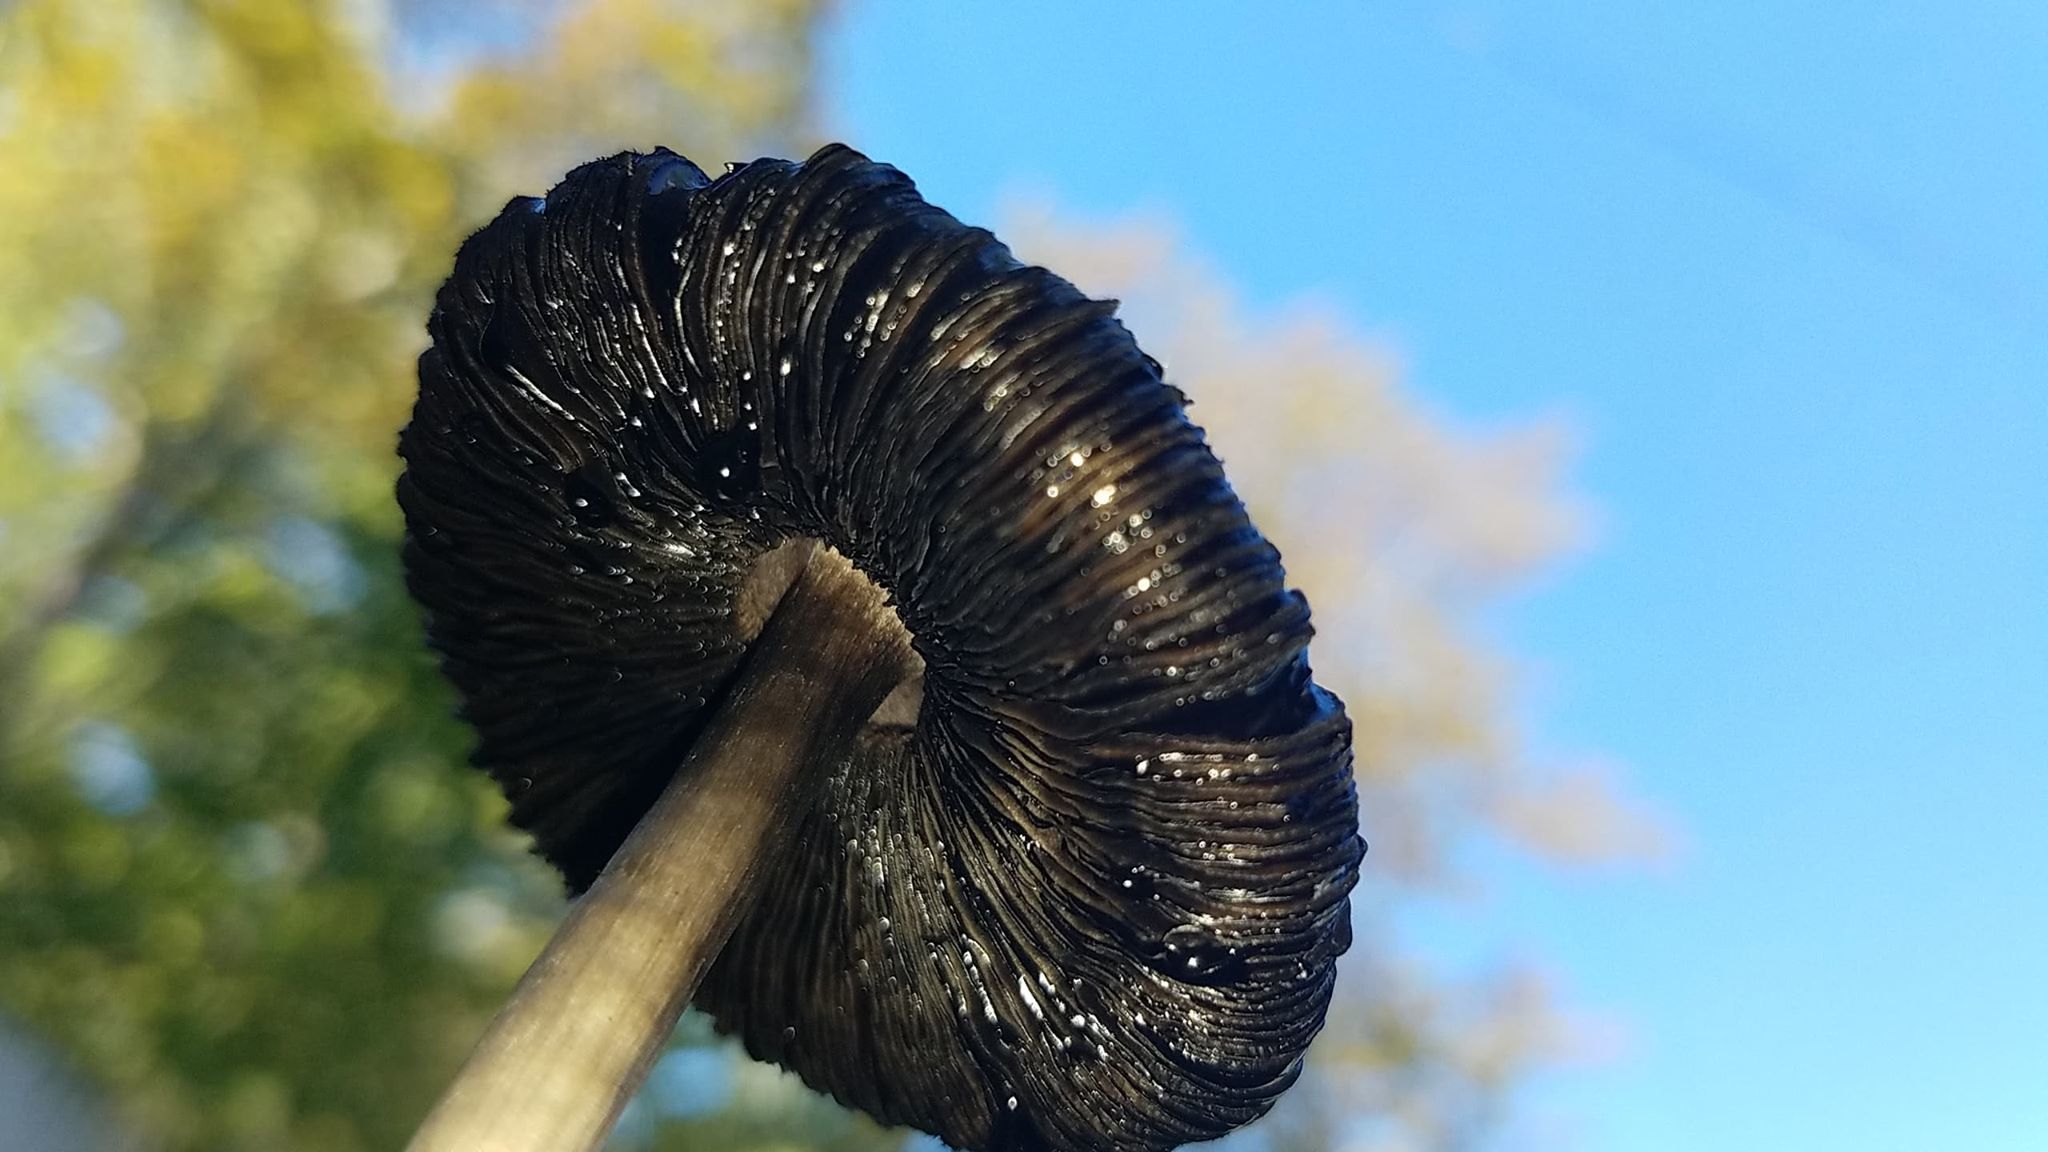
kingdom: Fungi
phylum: Basidiomycota
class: Agaricomycetes
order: Agaricales
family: Agaricaceae
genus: Coprinus
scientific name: Coprinus comatus
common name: Lawyer's wig
